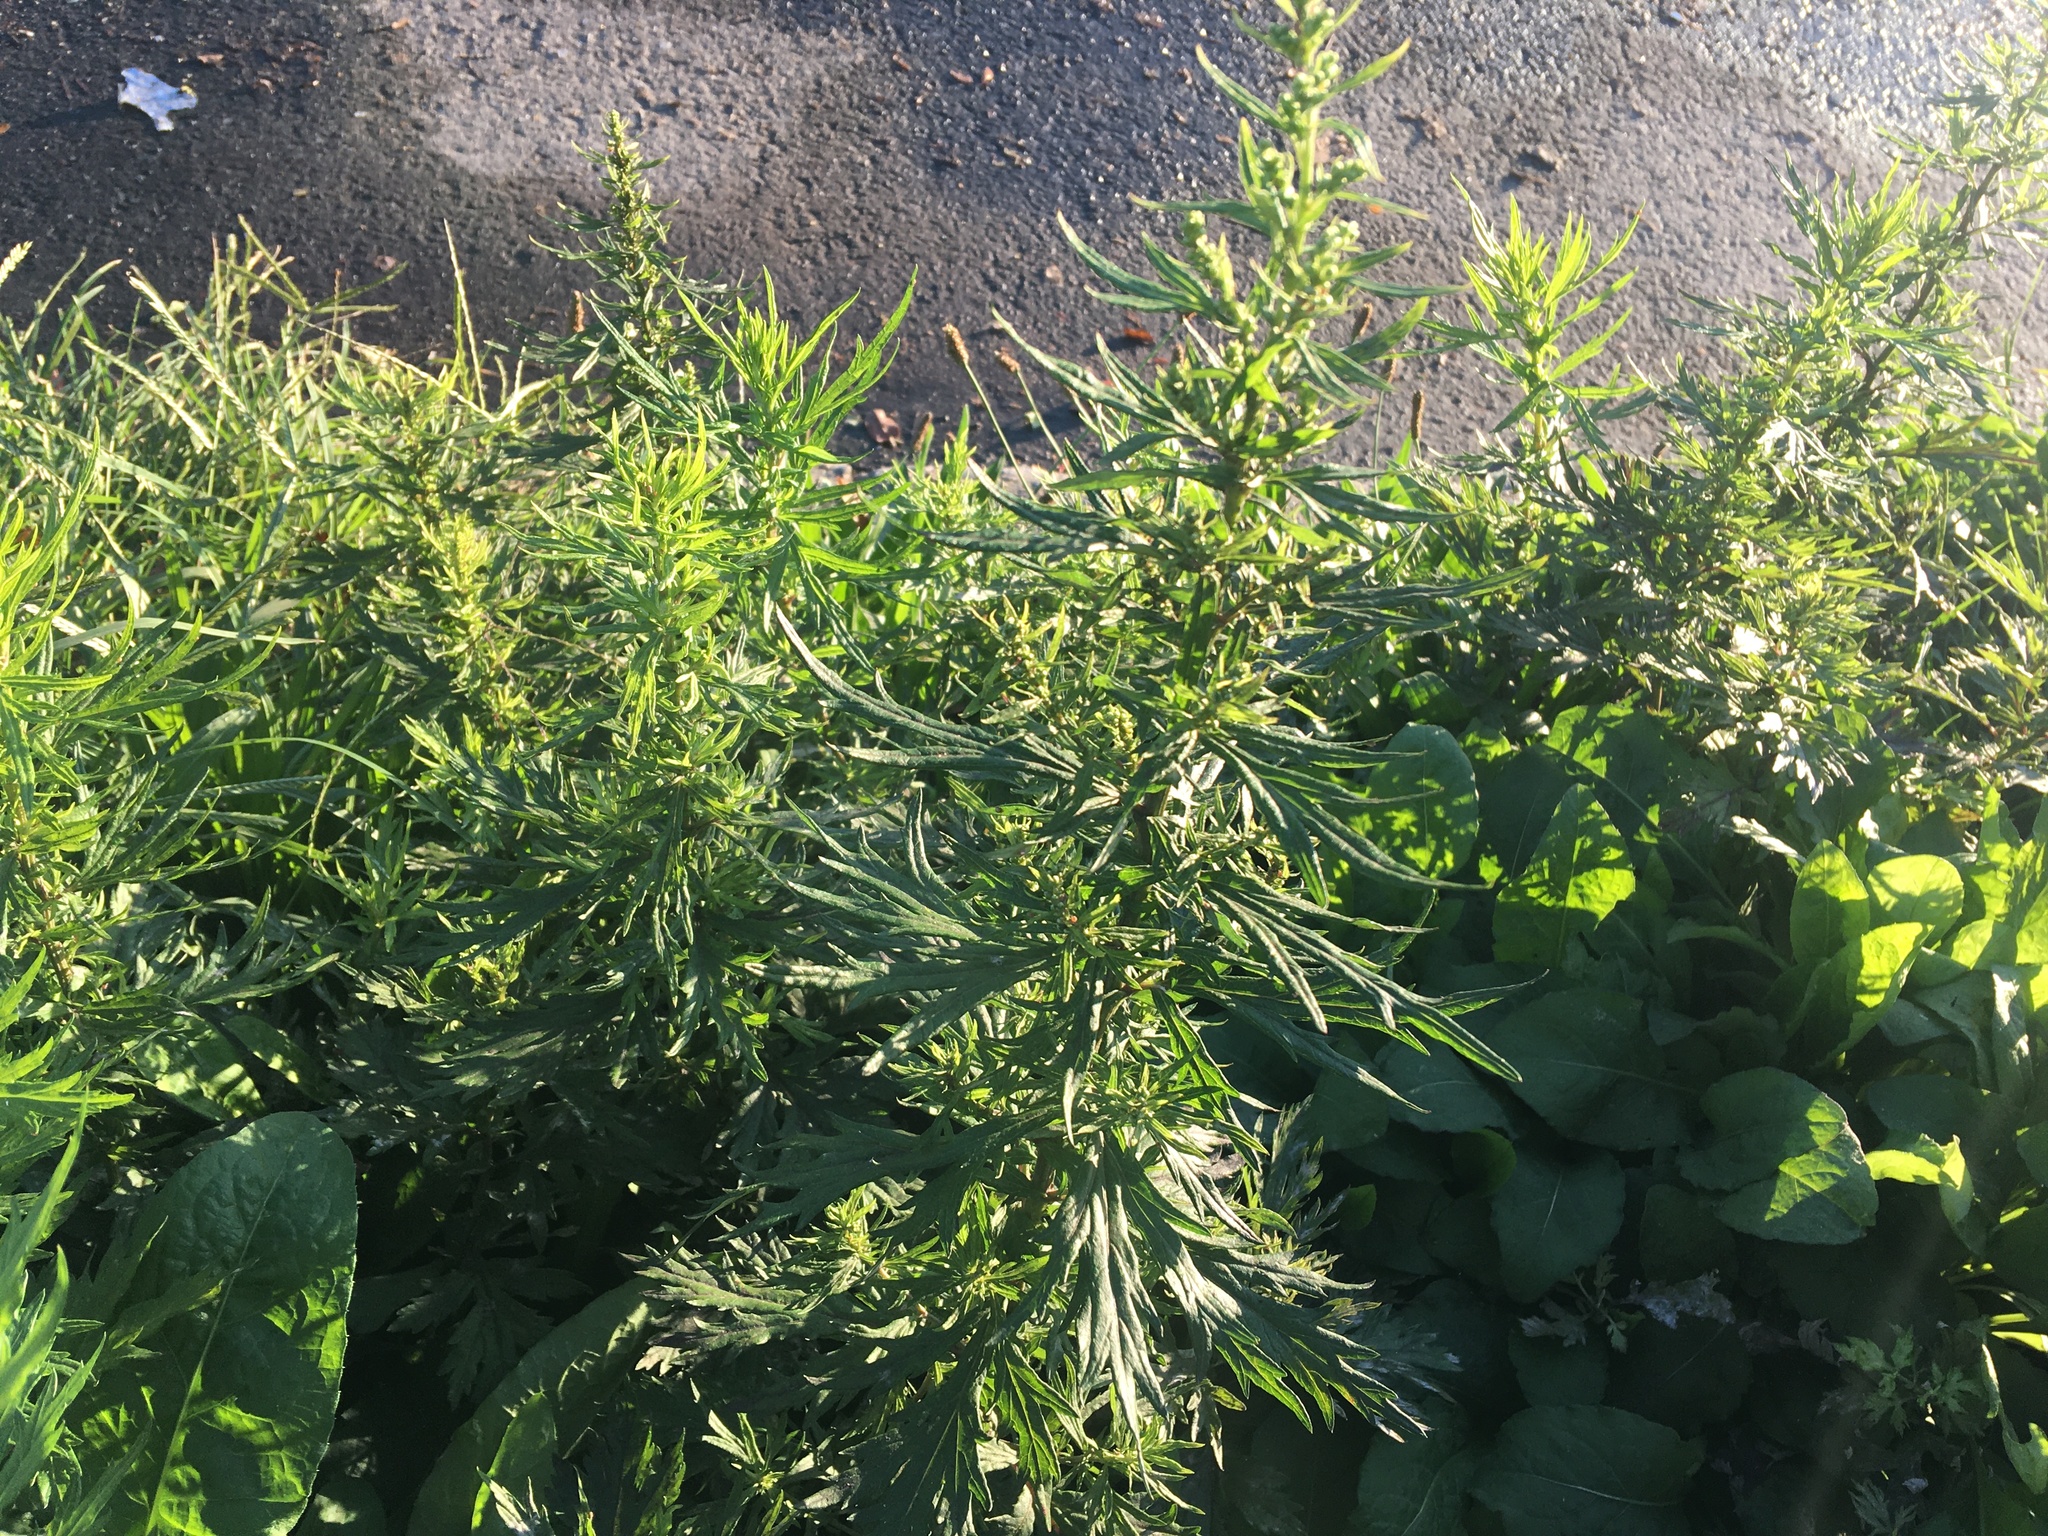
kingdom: Plantae
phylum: Tracheophyta
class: Magnoliopsida
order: Asterales
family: Asteraceae
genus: Artemisia
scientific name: Artemisia vulgaris
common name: Mugwort
